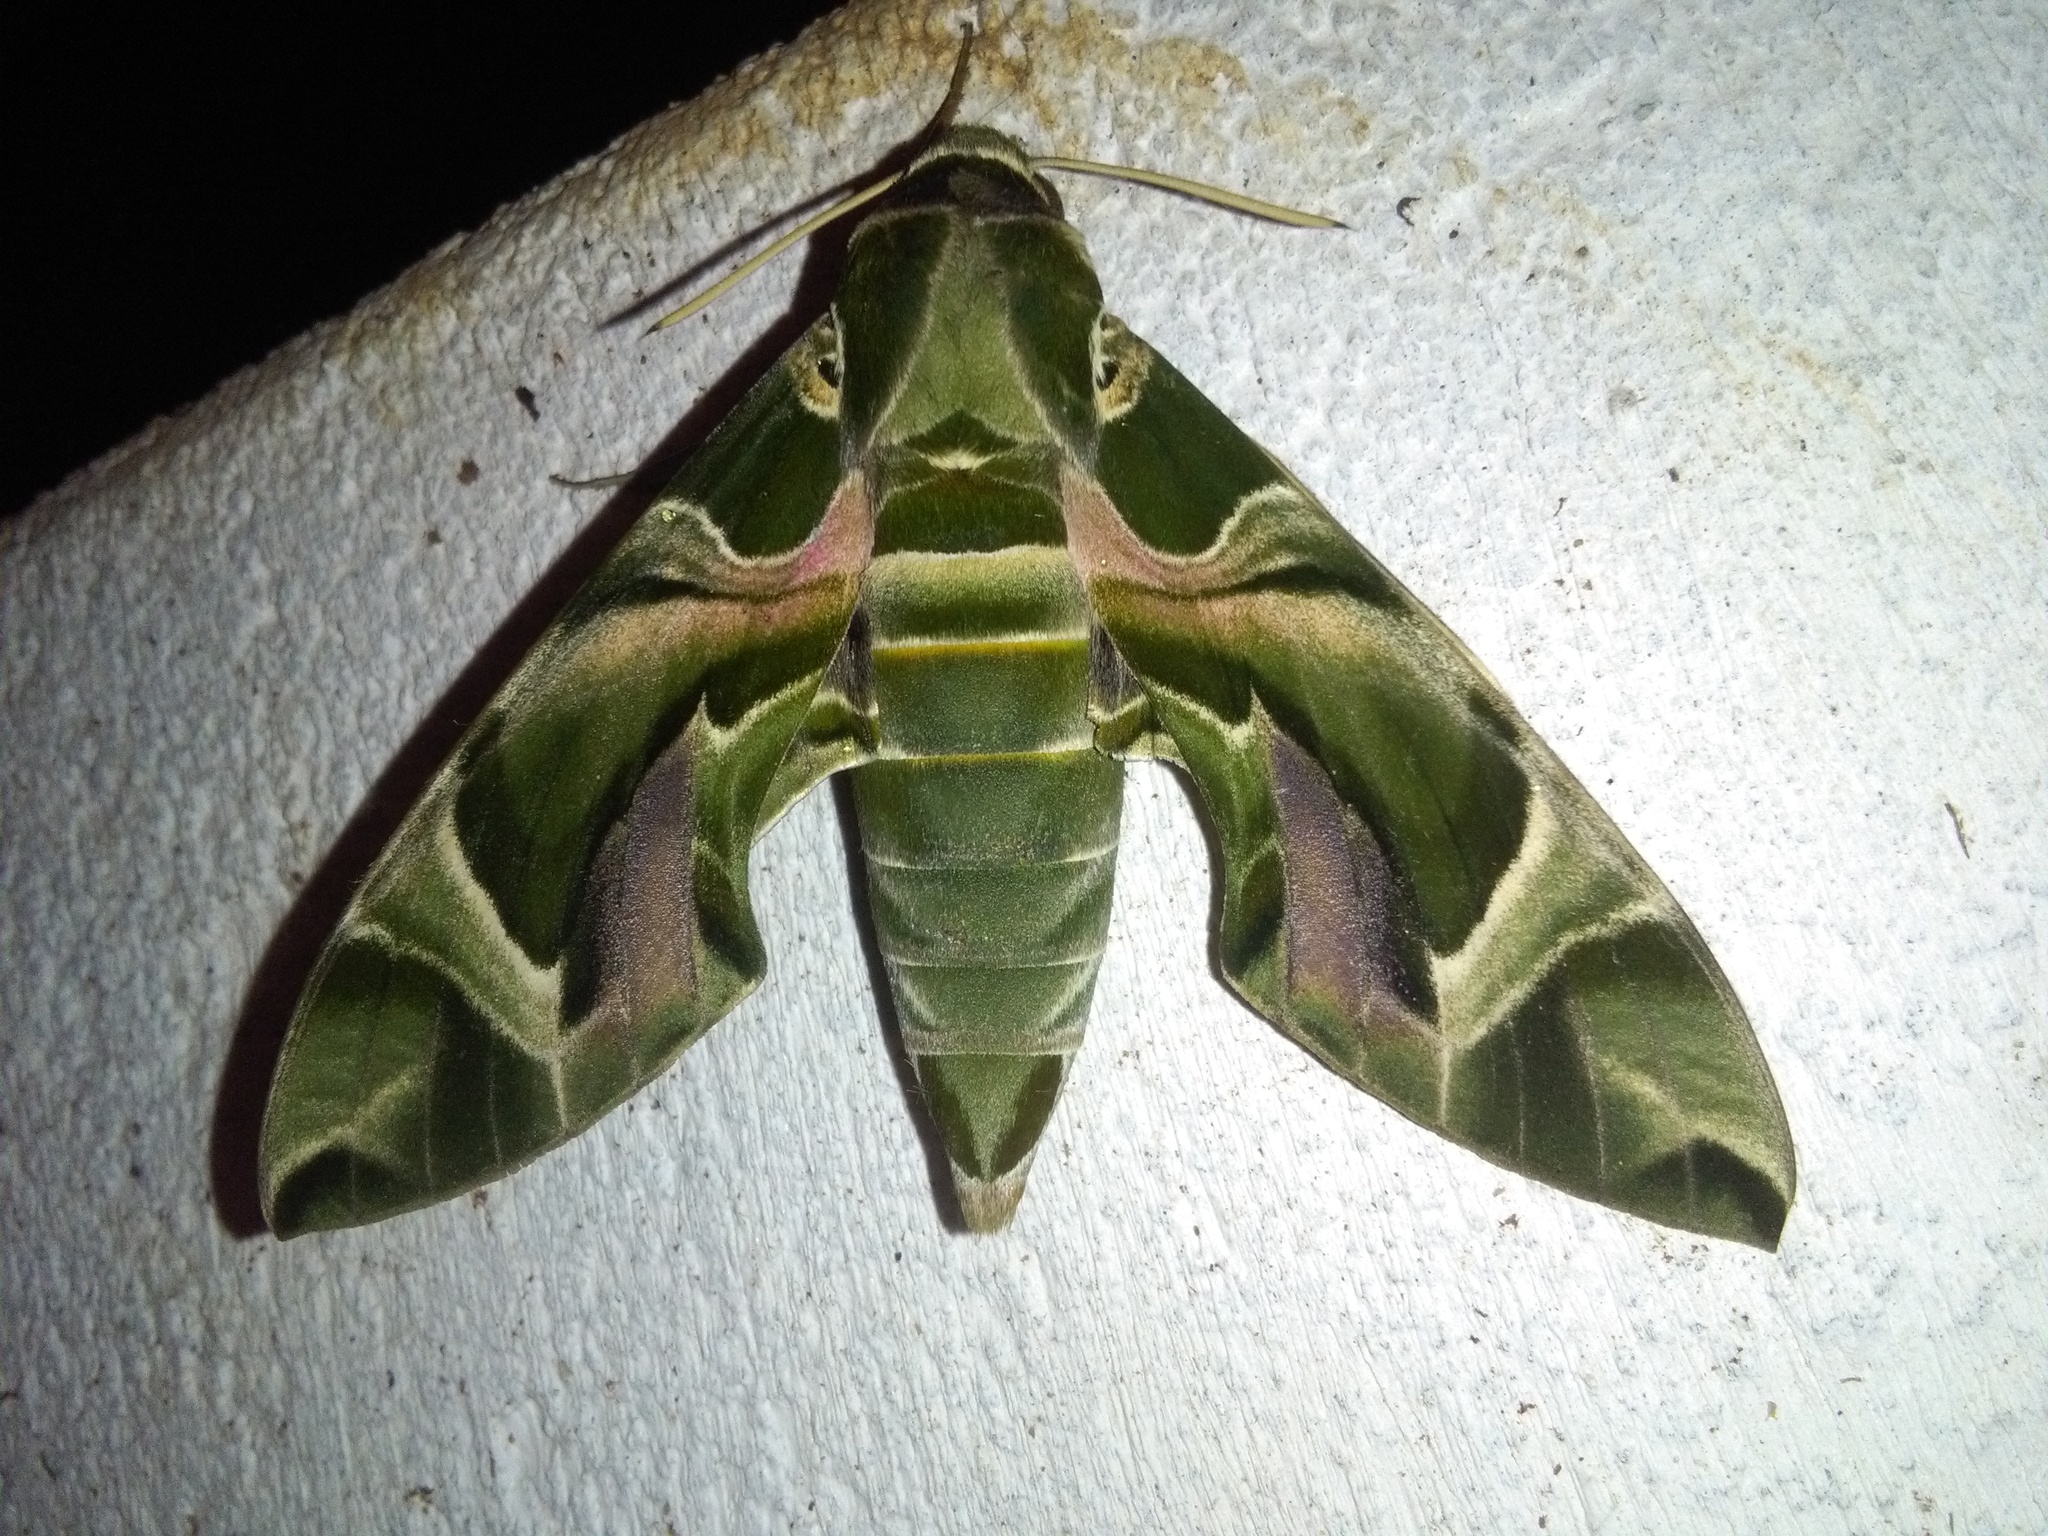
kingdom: Animalia
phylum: Arthropoda
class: Insecta
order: Lepidoptera
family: Sphingidae
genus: Daphnis
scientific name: Daphnis nerii
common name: Oleander hawk-moth
